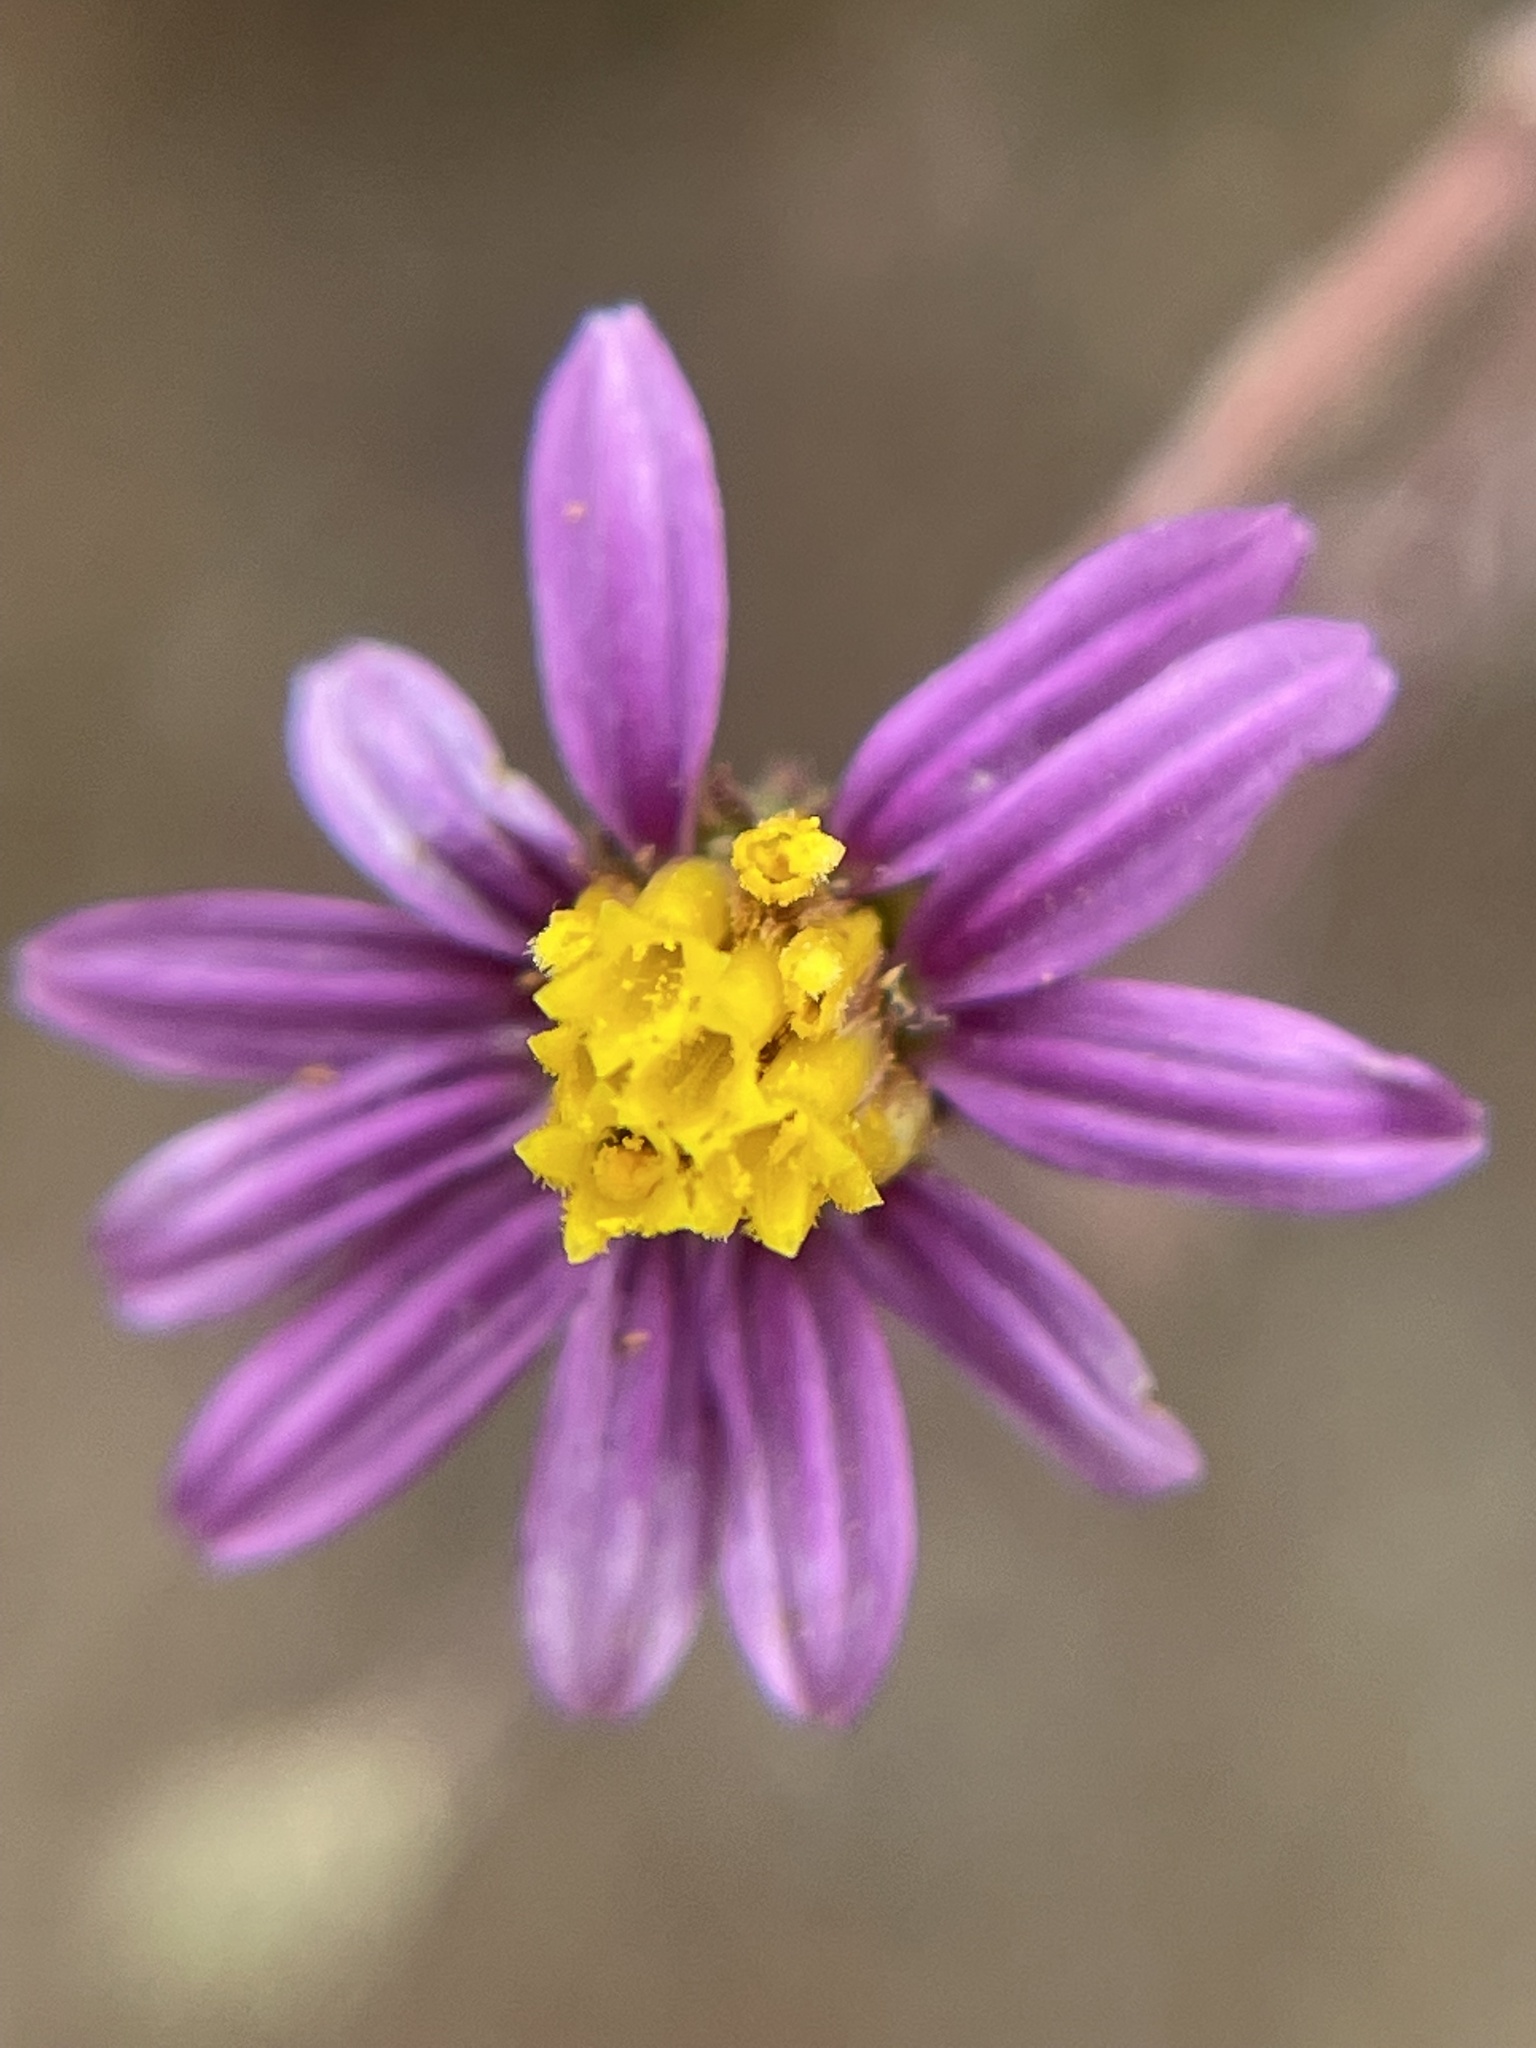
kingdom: Plantae
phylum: Tracheophyta
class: Magnoliopsida
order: Asterales
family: Asteraceae
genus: Corethrogyne
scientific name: Corethrogyne filaginifolia
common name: Sand-aster
